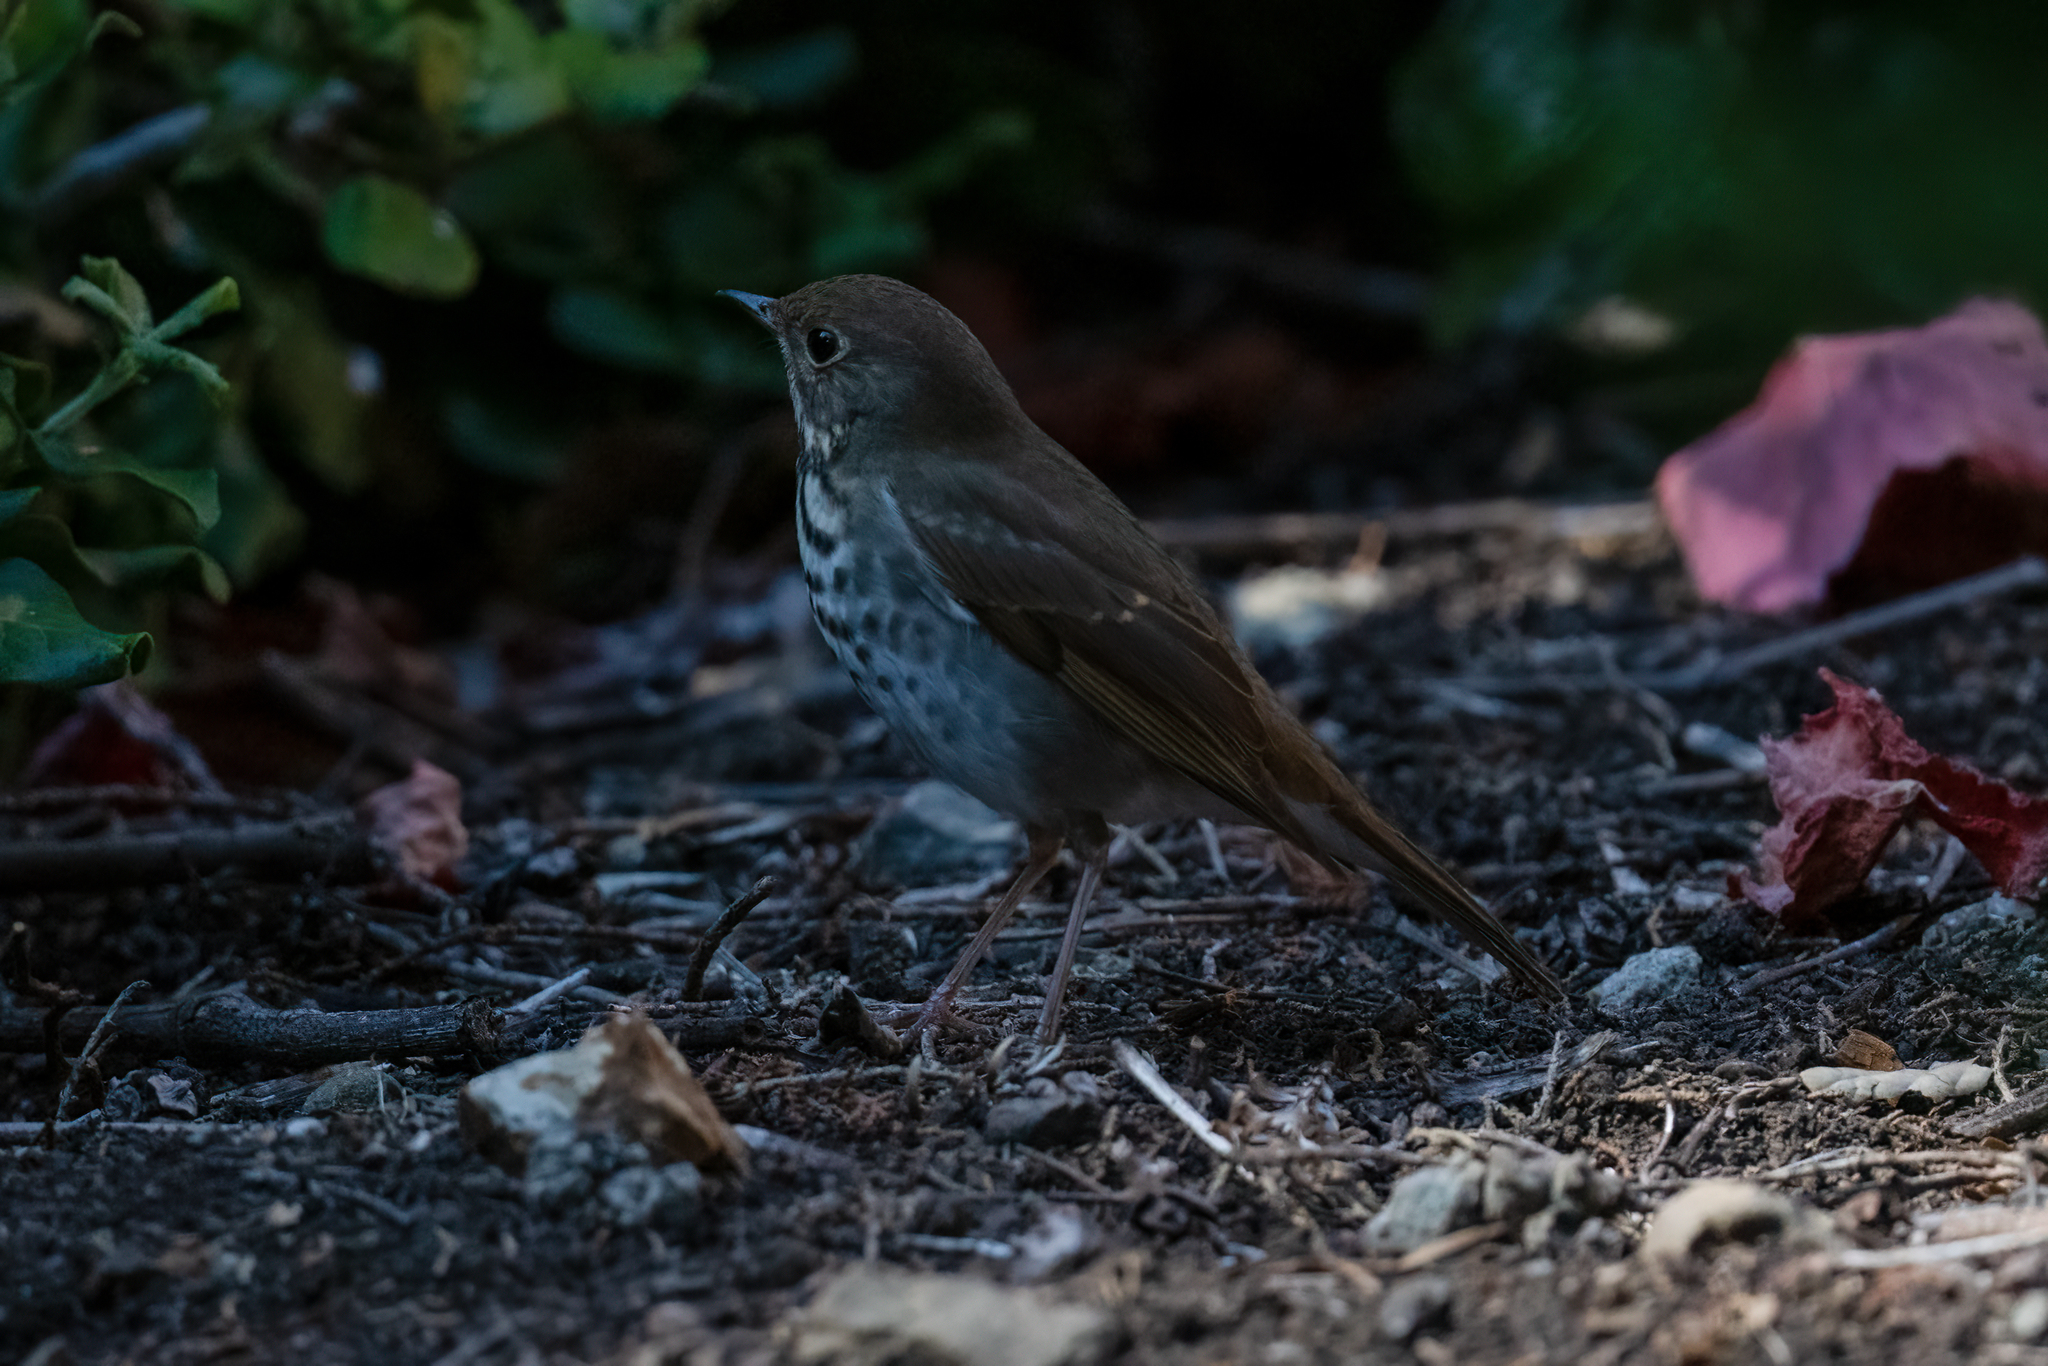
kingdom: Animalia
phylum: Chordata
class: Aves
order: Passeriformes
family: Turdidae
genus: Catharus
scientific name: Catharus guttatus
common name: Hermit thrush
